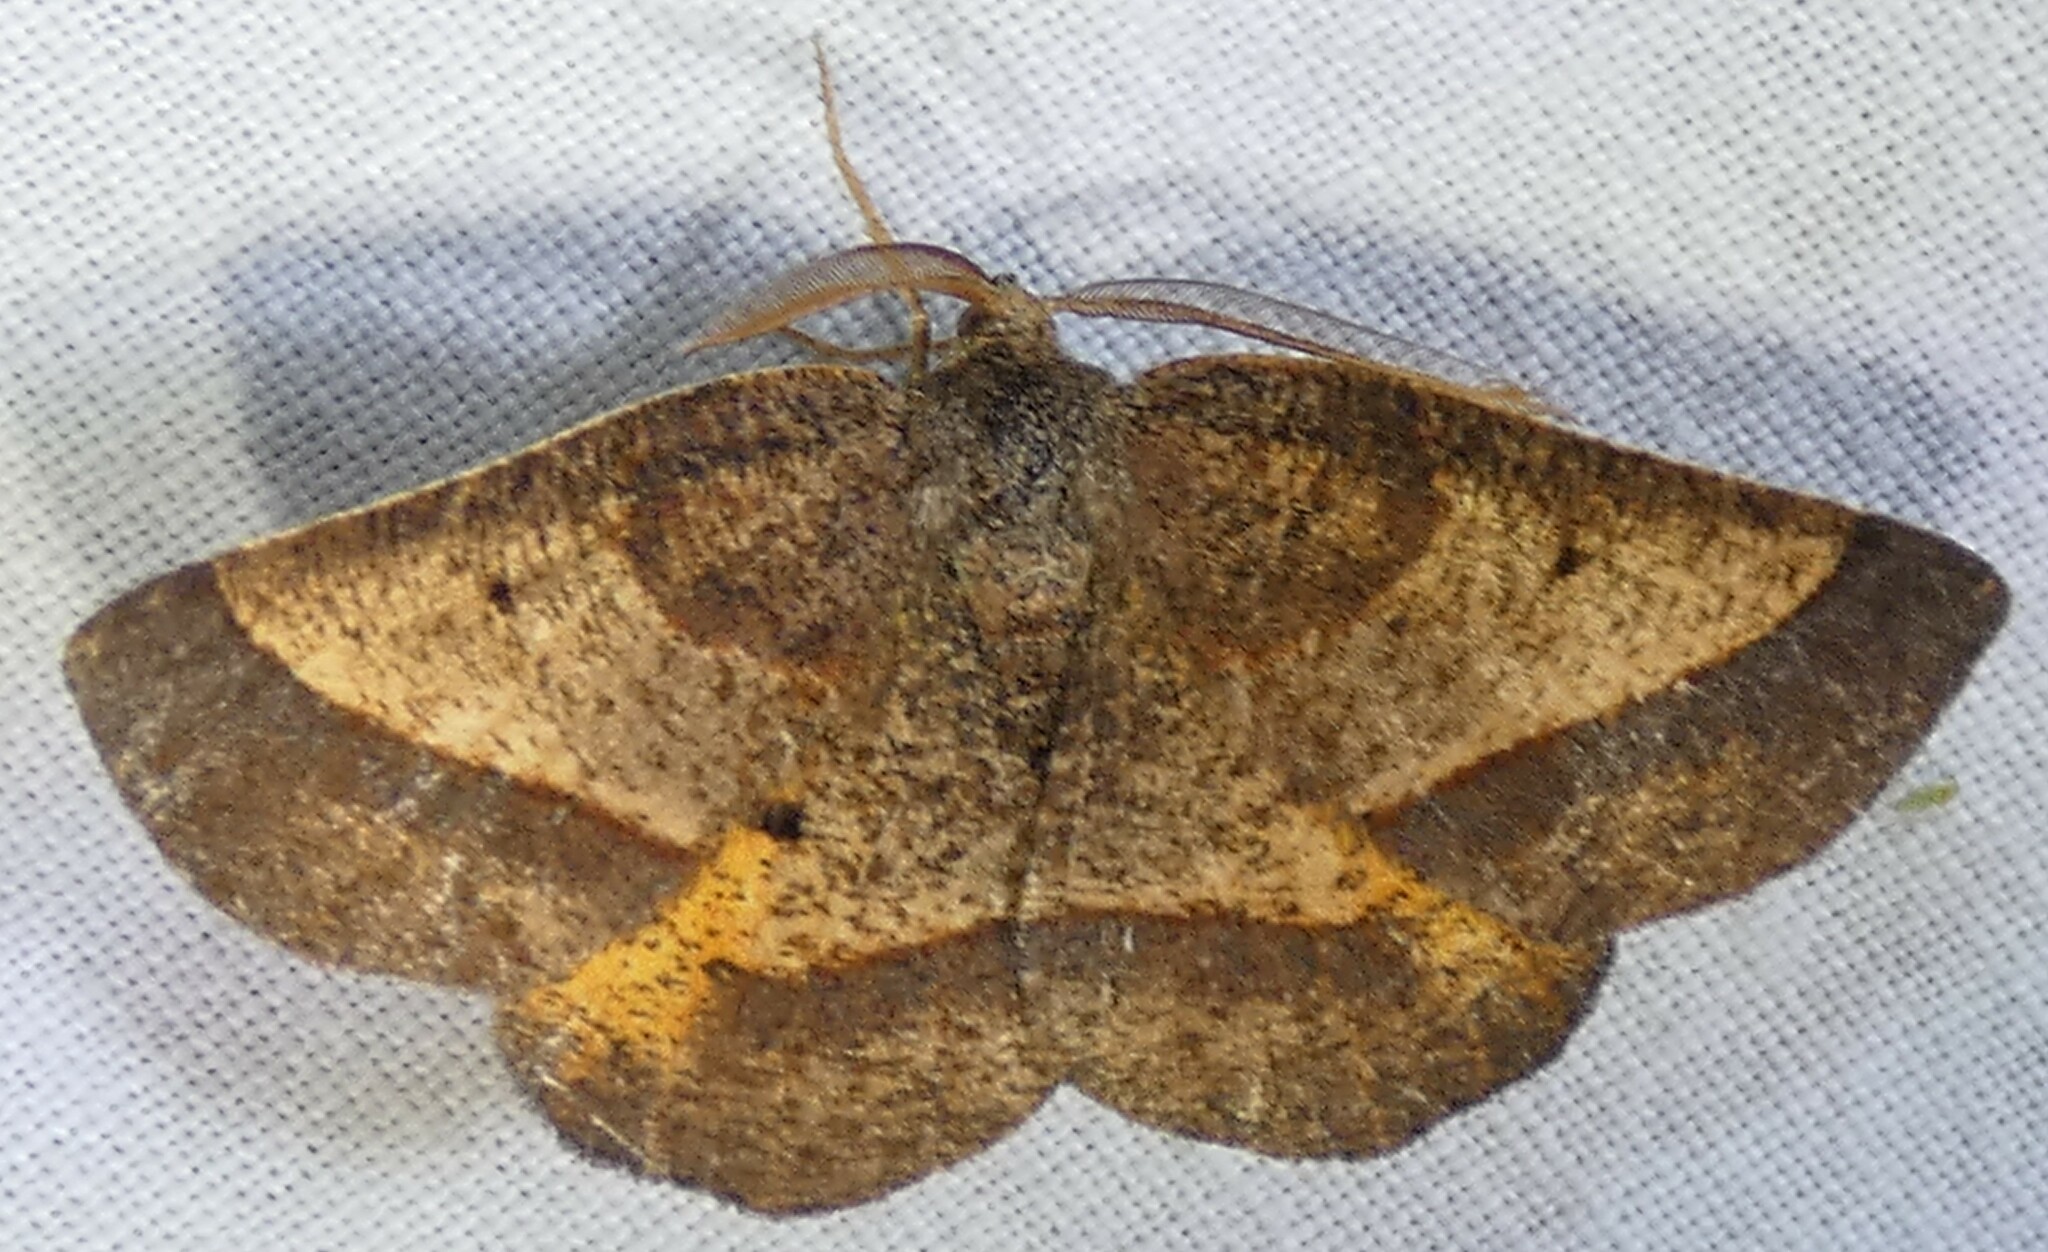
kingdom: Animalia
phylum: Arthropoda
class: Insecta
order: Lepidoptera
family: Geometridae
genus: Metarranthis
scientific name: Metarranthis obfirmaria
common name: Yellow-washed metarranthis
